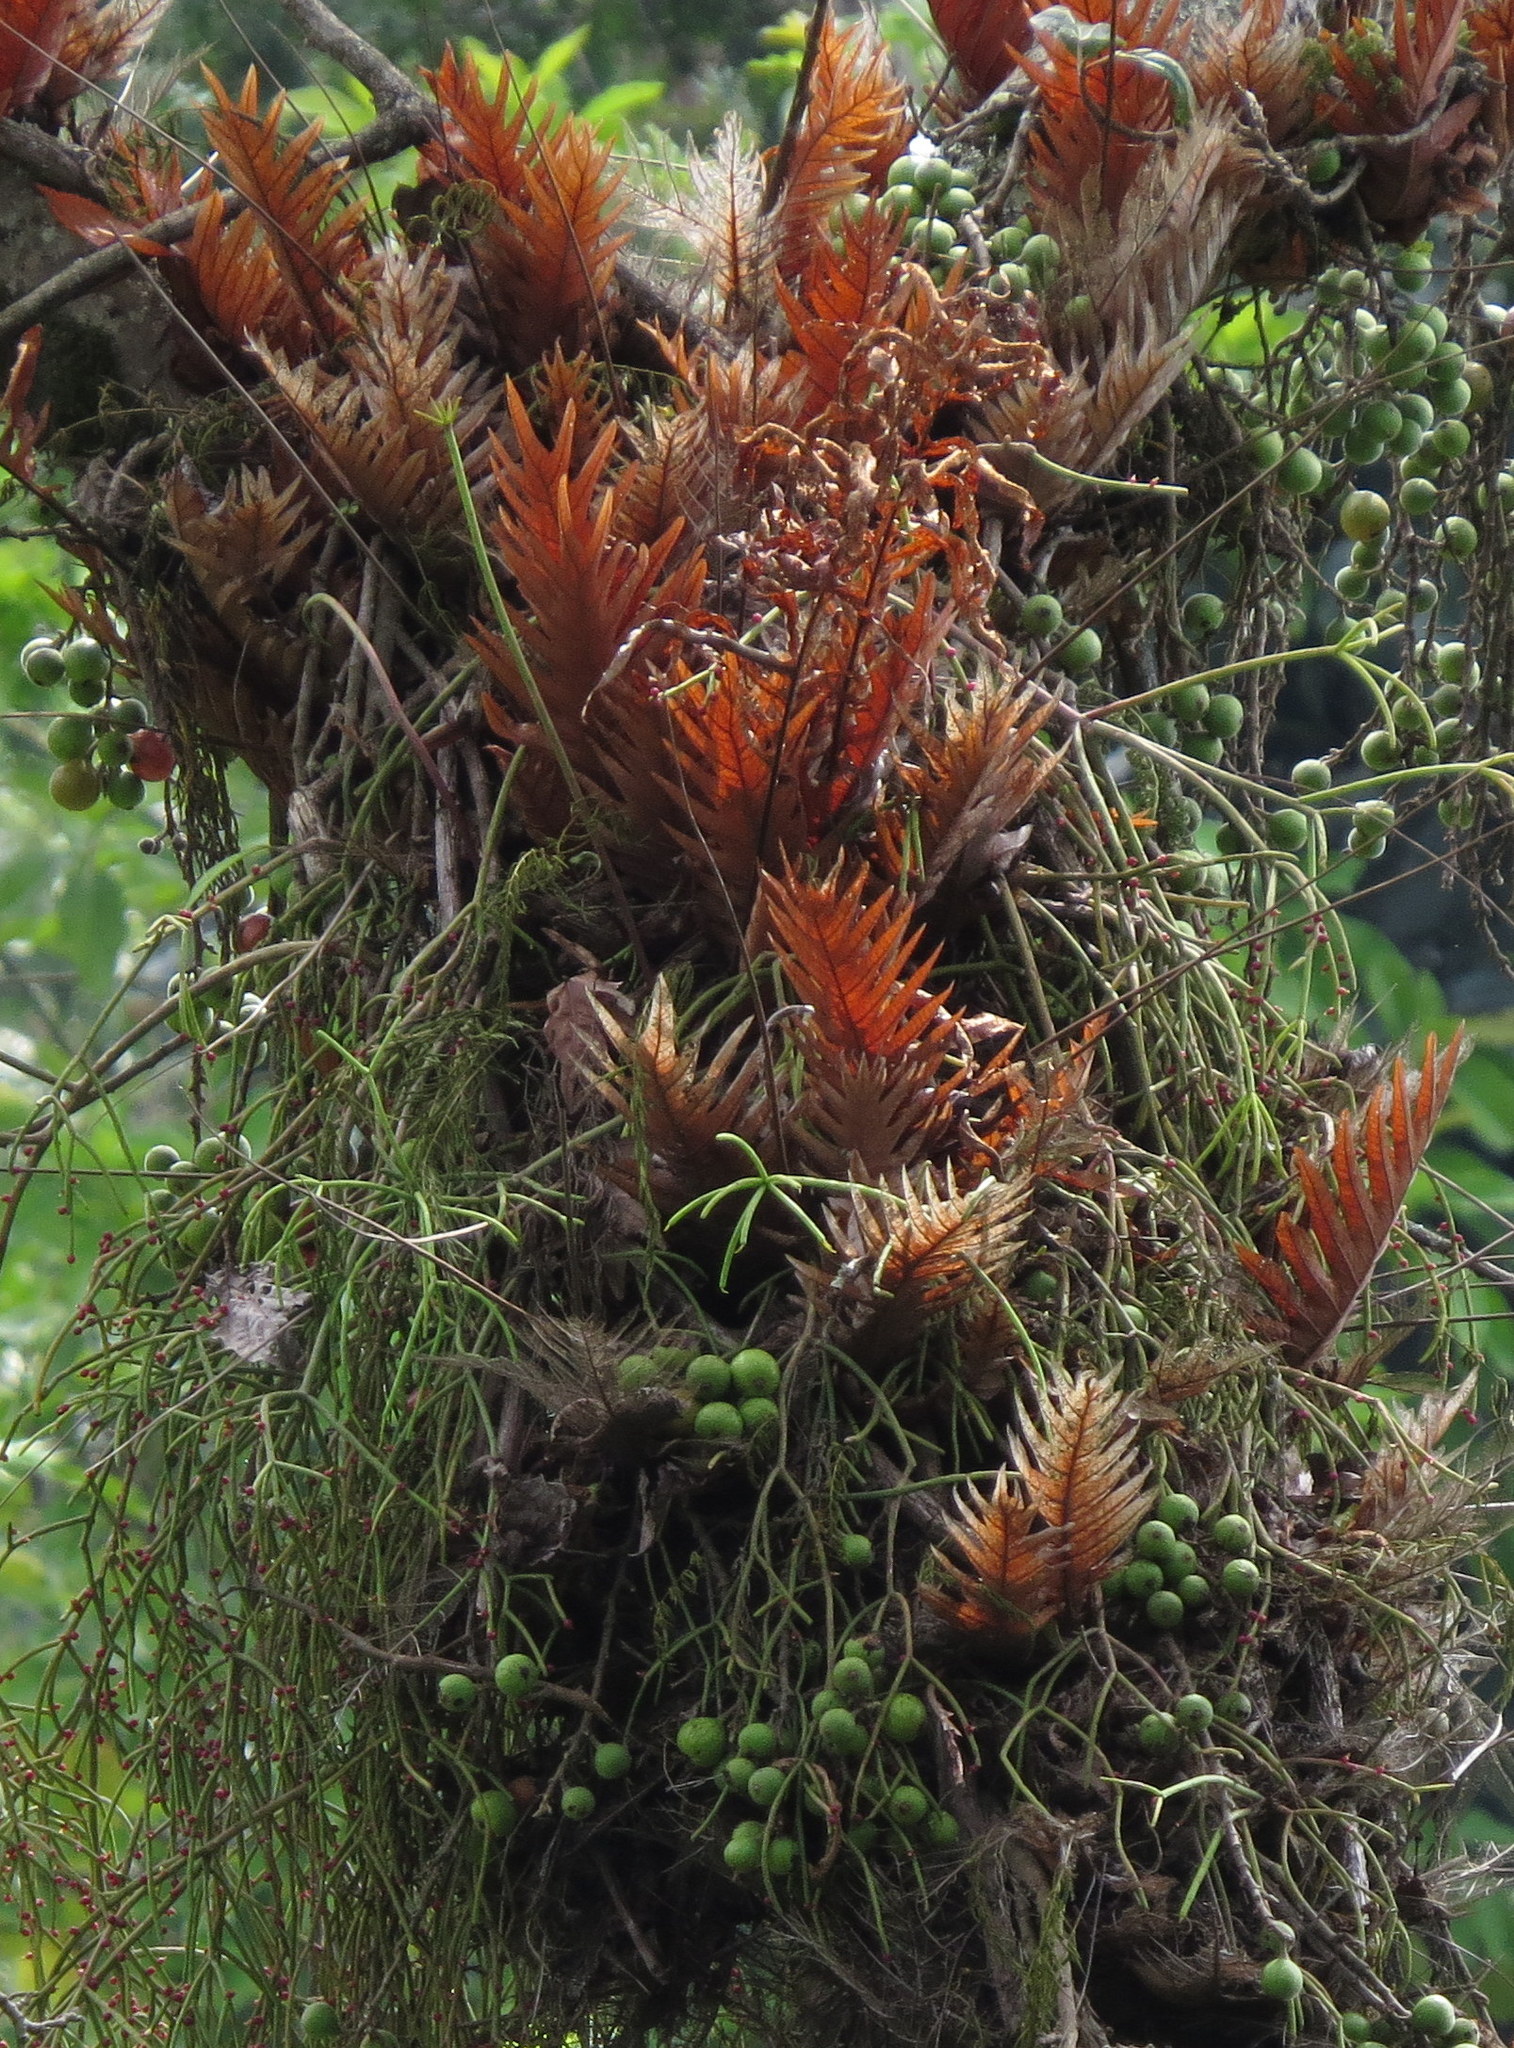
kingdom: Plantae
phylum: Tracheophyta
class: Polypodiopsida
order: Polypodiales
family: Polypodiaceae
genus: Drynaria
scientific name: Drynaria
